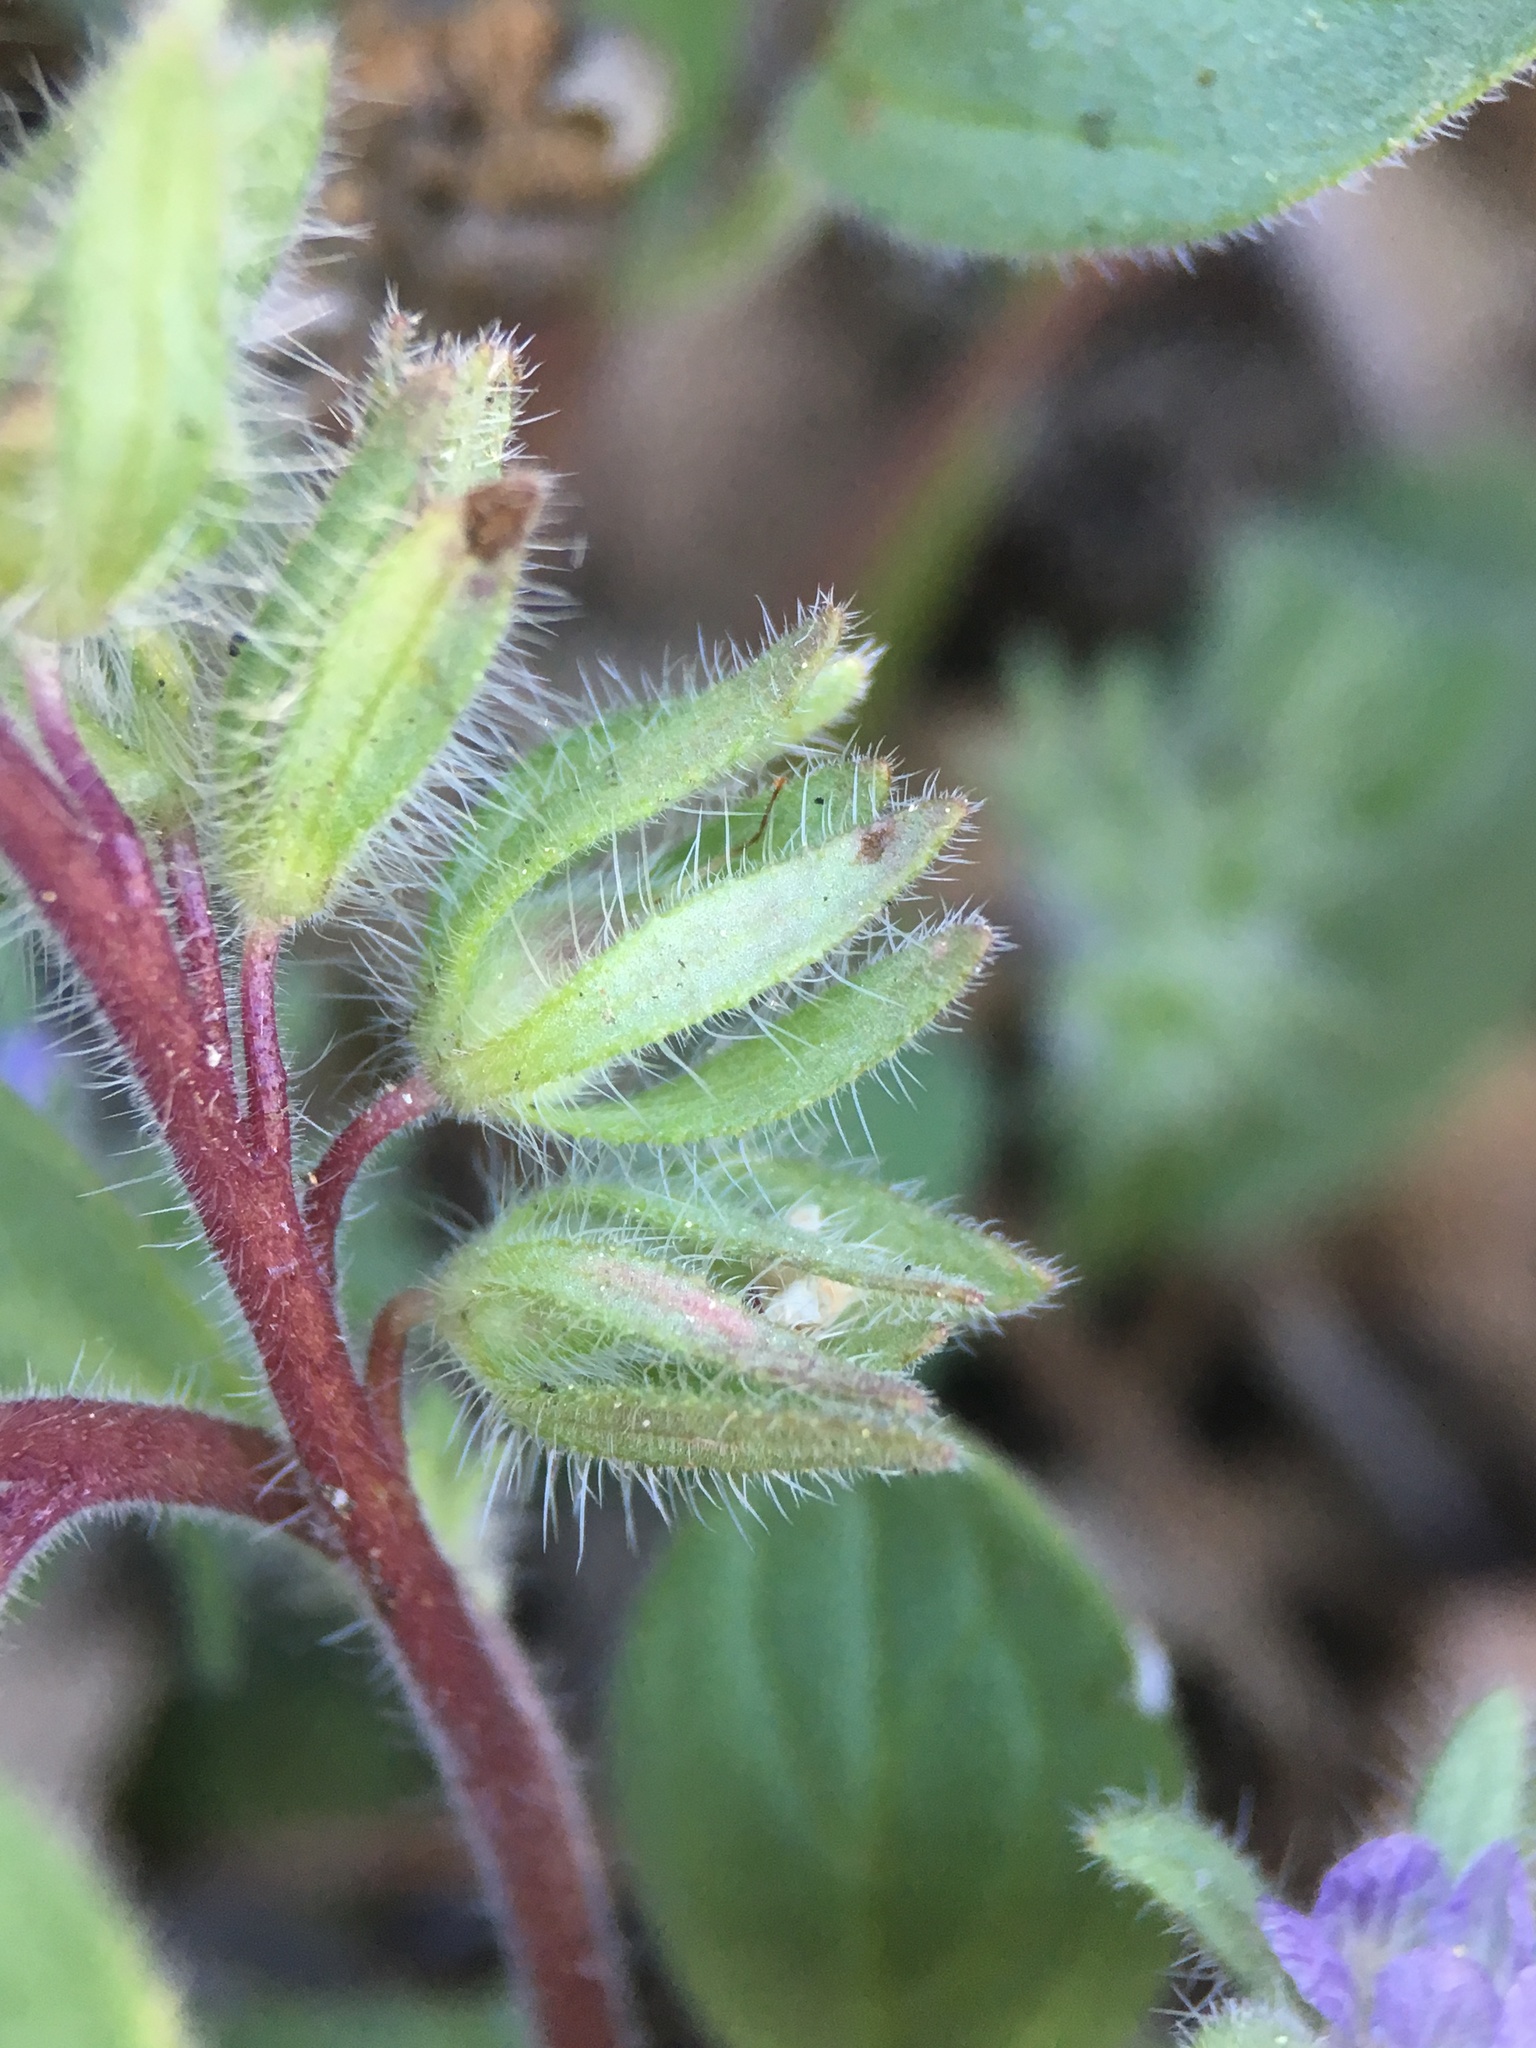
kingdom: Plantae
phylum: Tracheophyta
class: Magnoliopsida
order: Boraginales
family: Hydrophyllaceae
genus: Phacelia
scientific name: Phacelia novenmillensis
